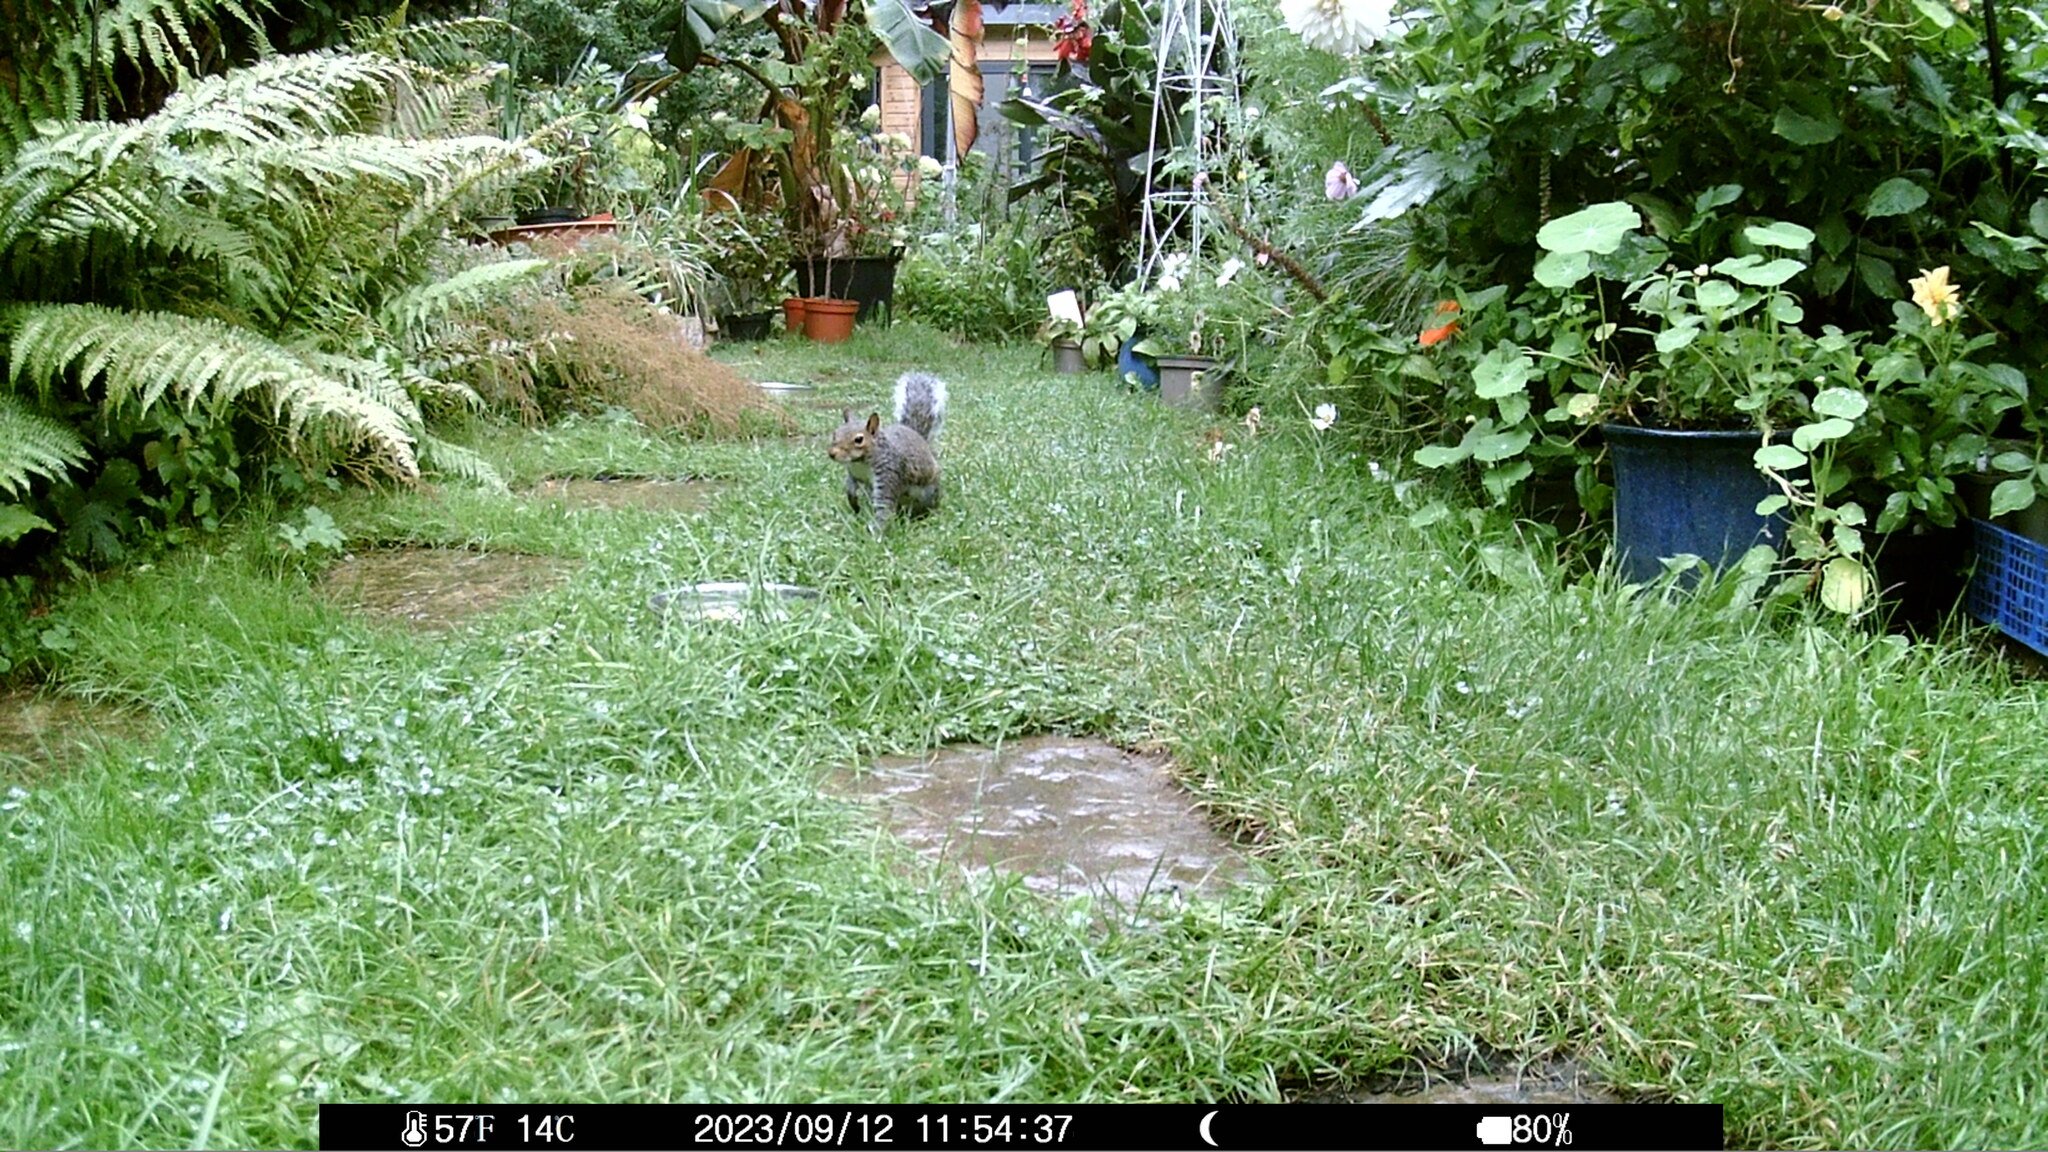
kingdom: Animalia
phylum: Chordata
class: Mammalia
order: Rodentia
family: Sciuridae
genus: Sciurus
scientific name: Sciurus carolinensis
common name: Eastern gray squirrel
